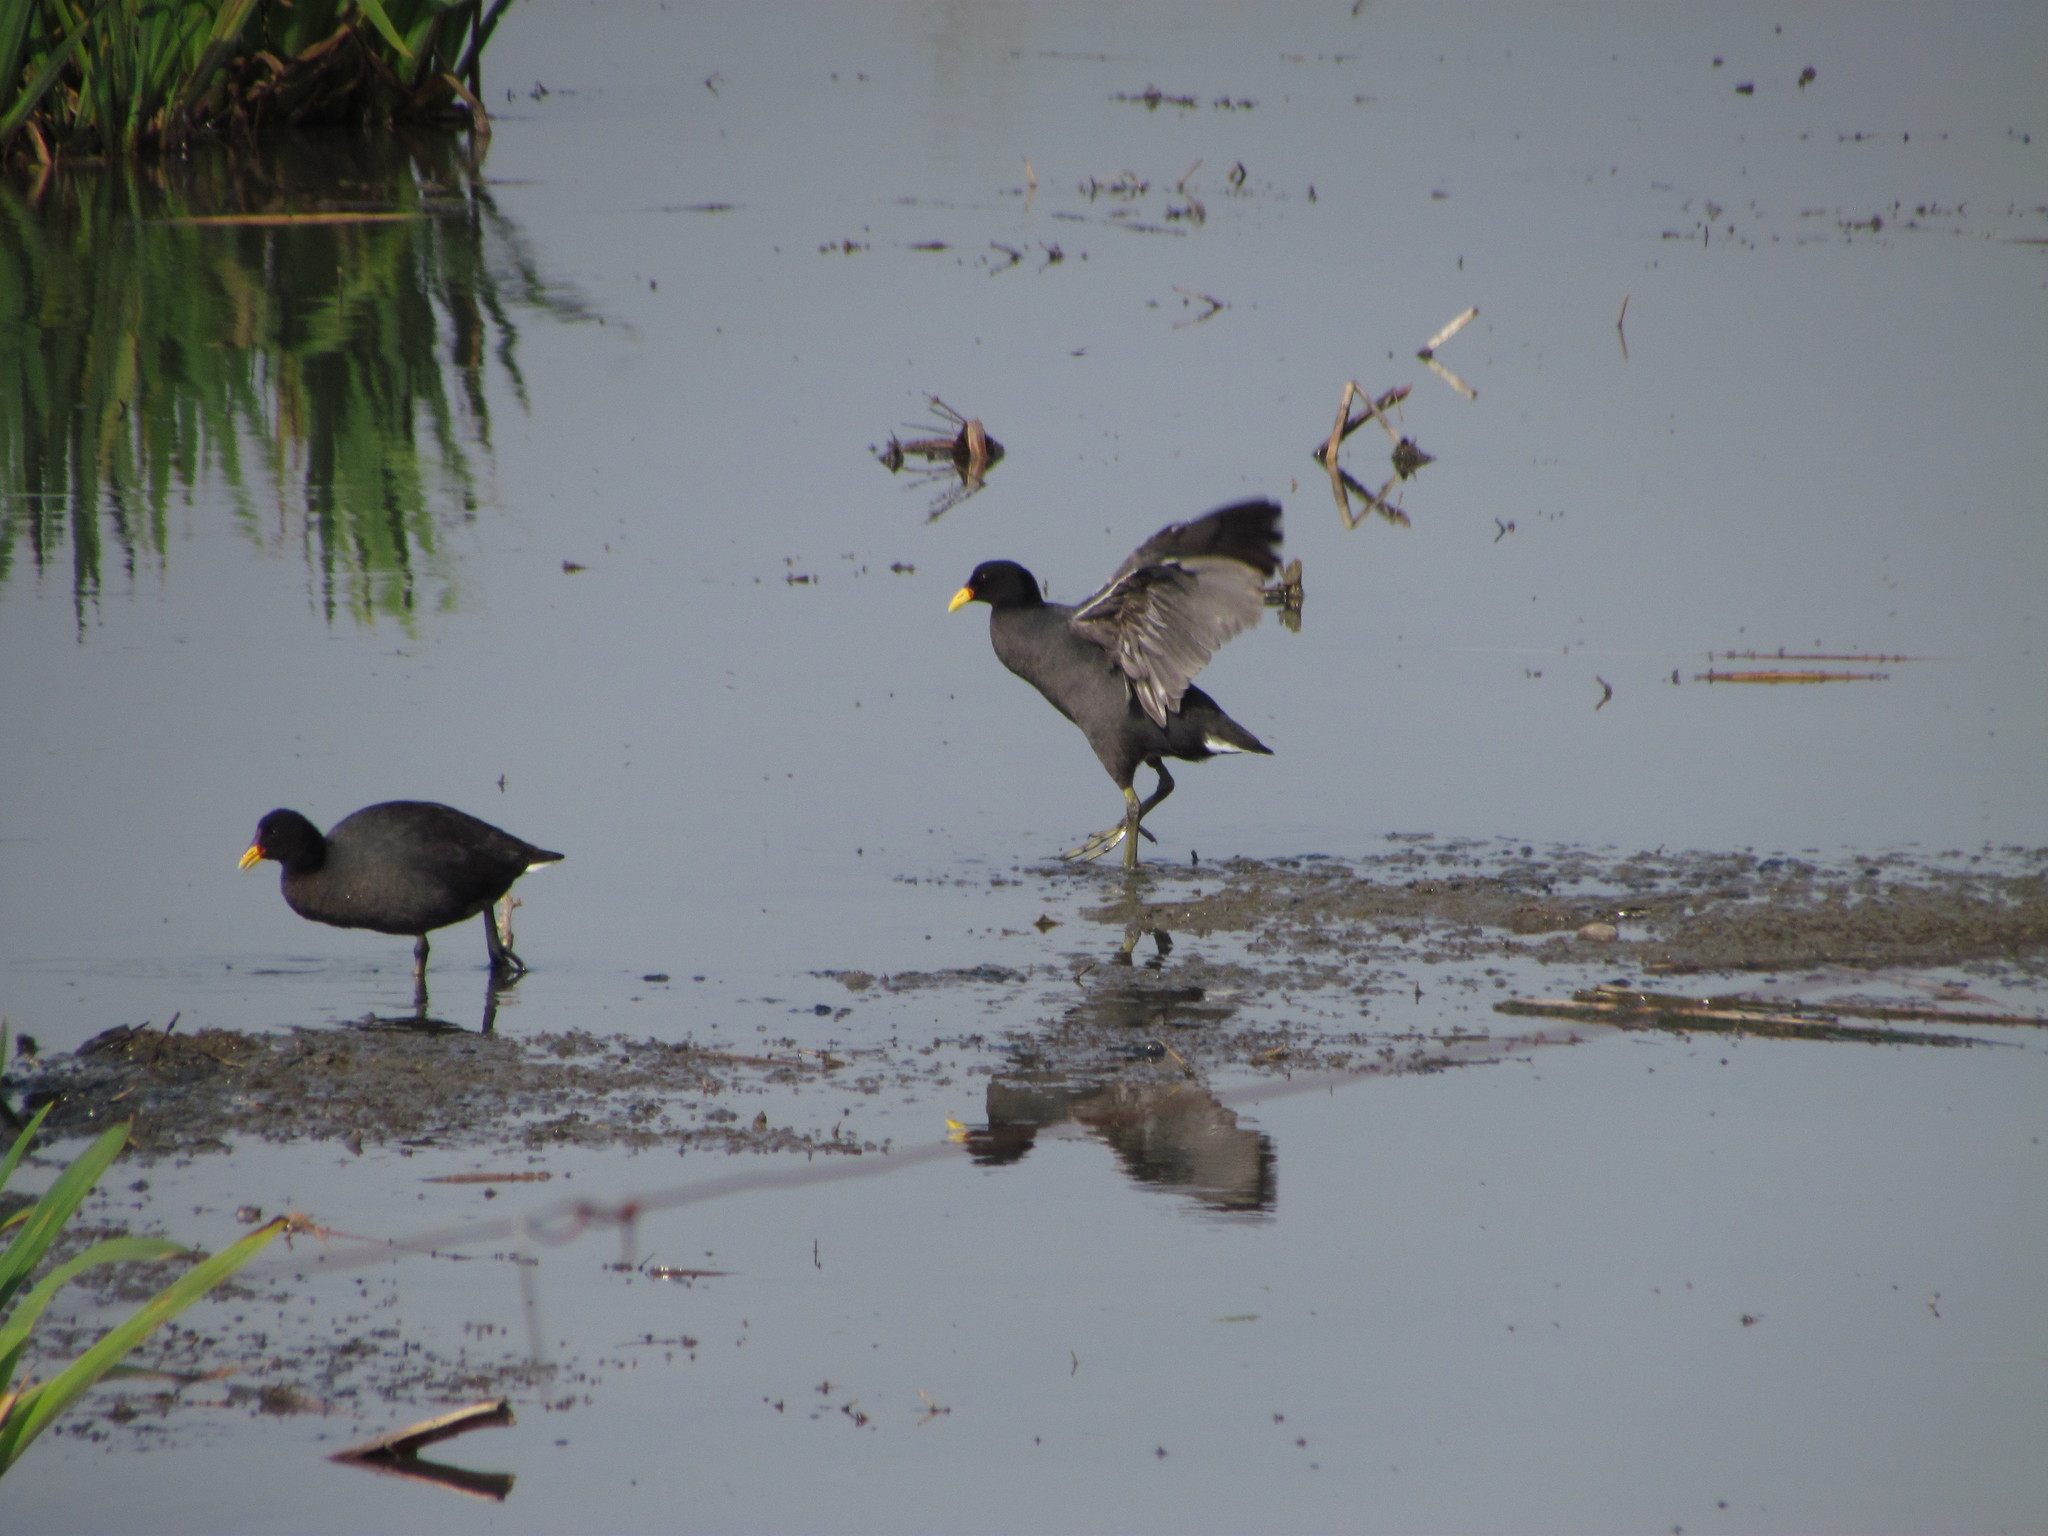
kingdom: Animalia
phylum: Chordata
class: Aves
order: Gruiformes
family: Rallidae
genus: Fulica
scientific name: Fulica rufifrons
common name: Red-fronted coot
